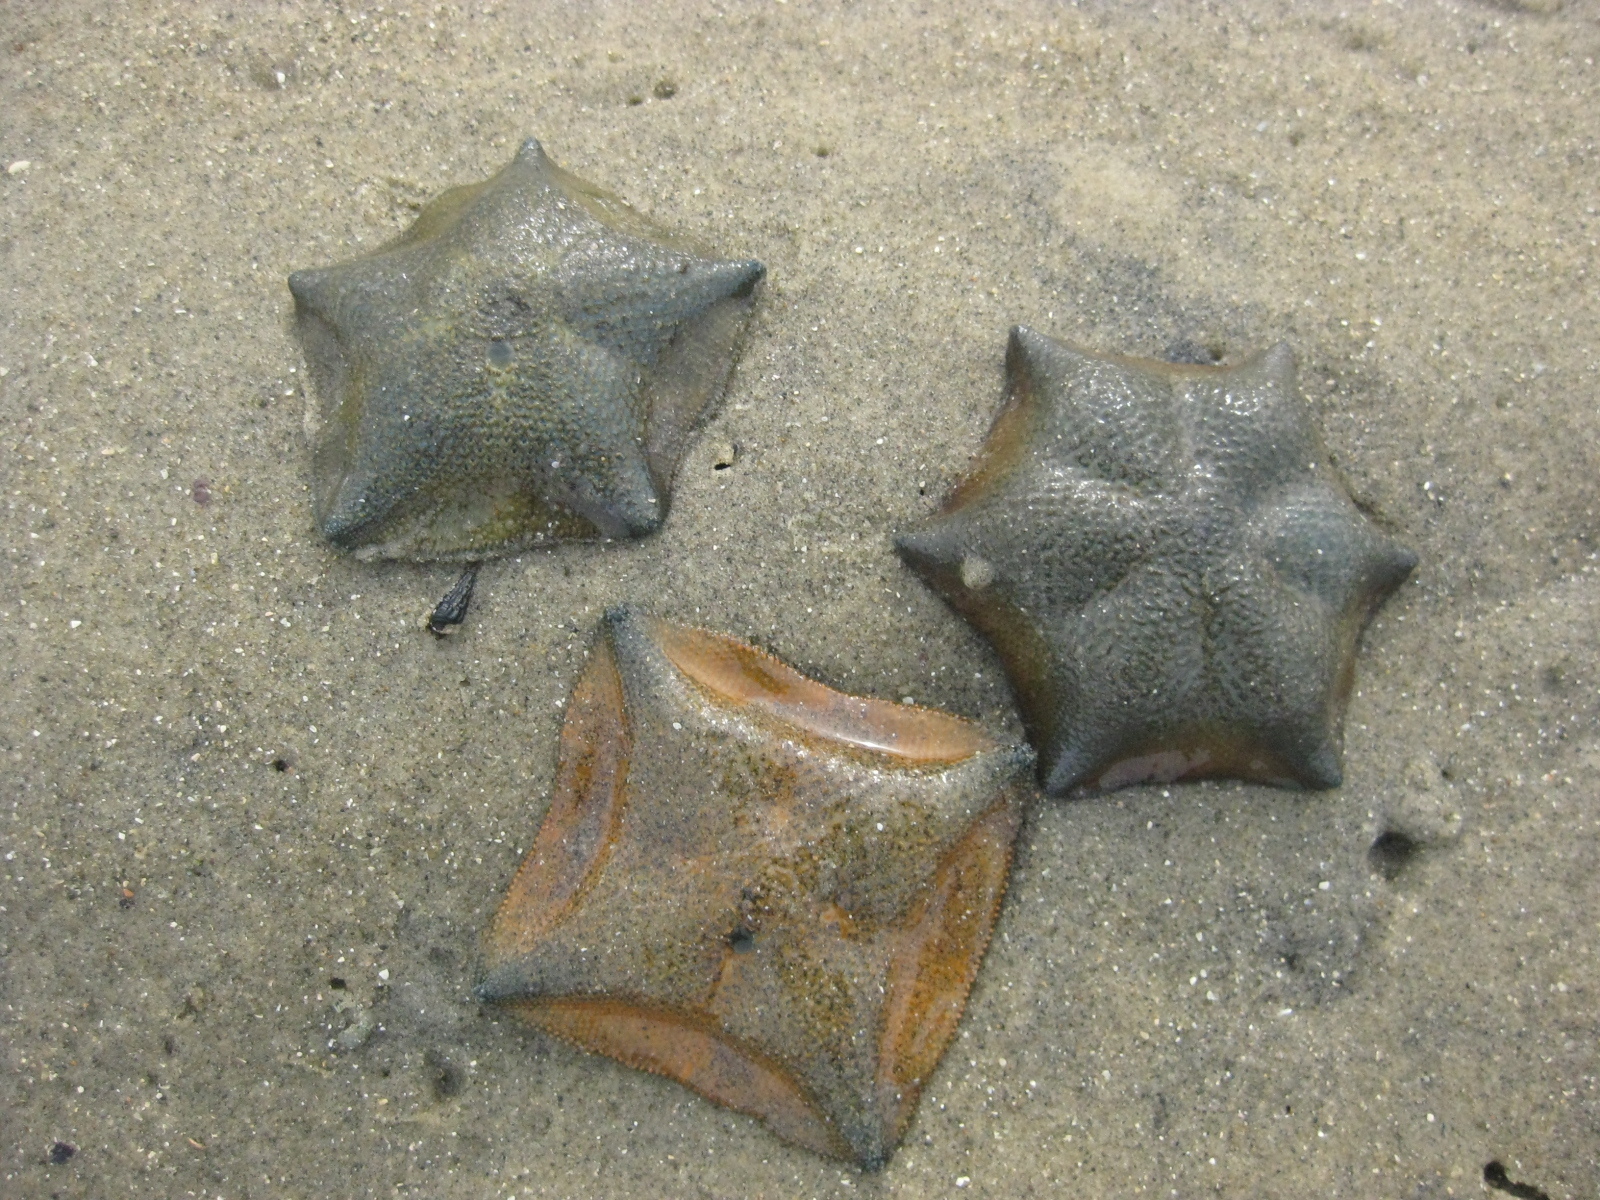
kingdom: Animalia
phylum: Echinodermata
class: Asteroidea
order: Valvatida
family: Asterinidae
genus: Patiriella
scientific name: Patiriella regularis
